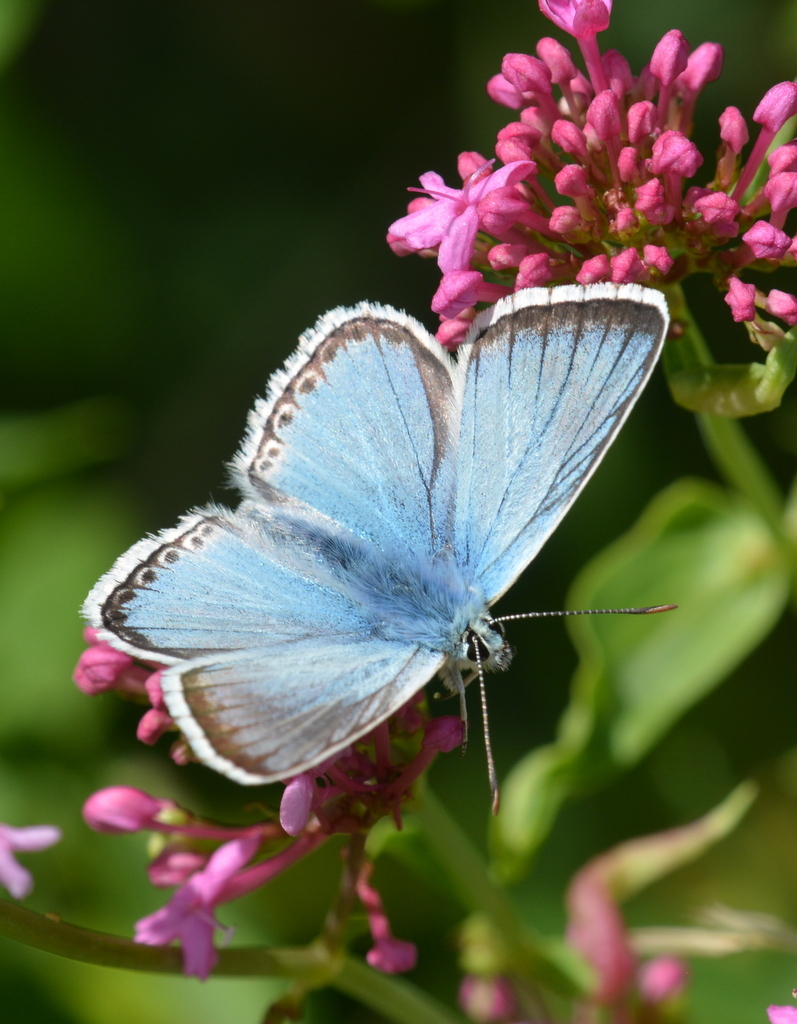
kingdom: Animalia
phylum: Arthropoda
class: Insecta
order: Lepidoptera
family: Lycaenidae
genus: Lysandra
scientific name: Lysandra coridon
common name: Chalkhill blue
